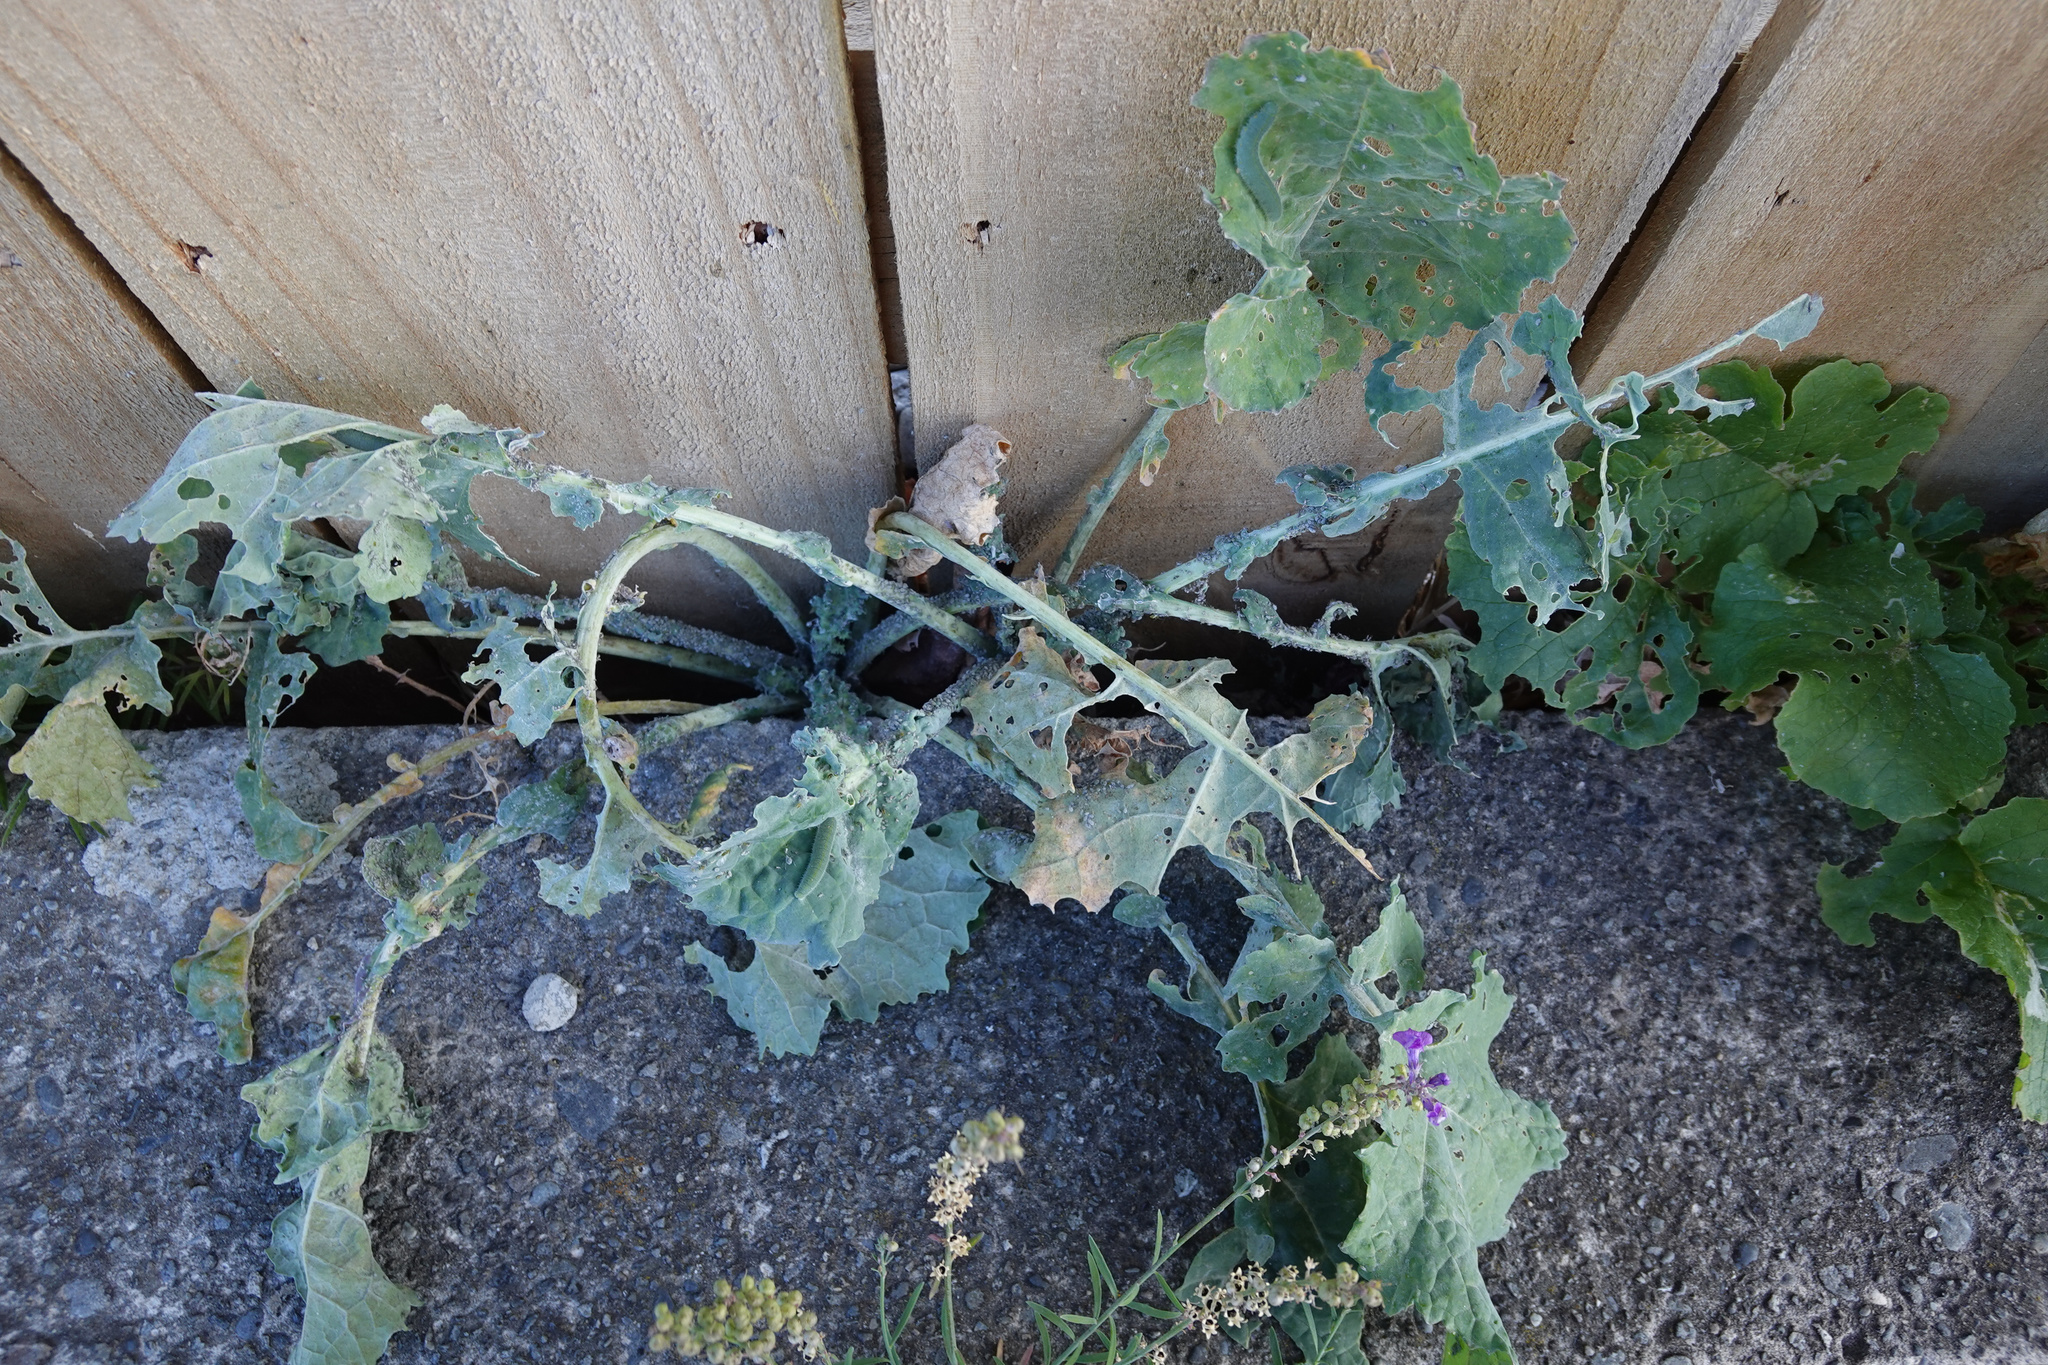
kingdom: Plantae
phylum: Tracheophyta
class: Magnoliopsida
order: Brassicales
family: Brassicaceae
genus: Brassica
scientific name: Brassica oleracea
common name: Cabbage
